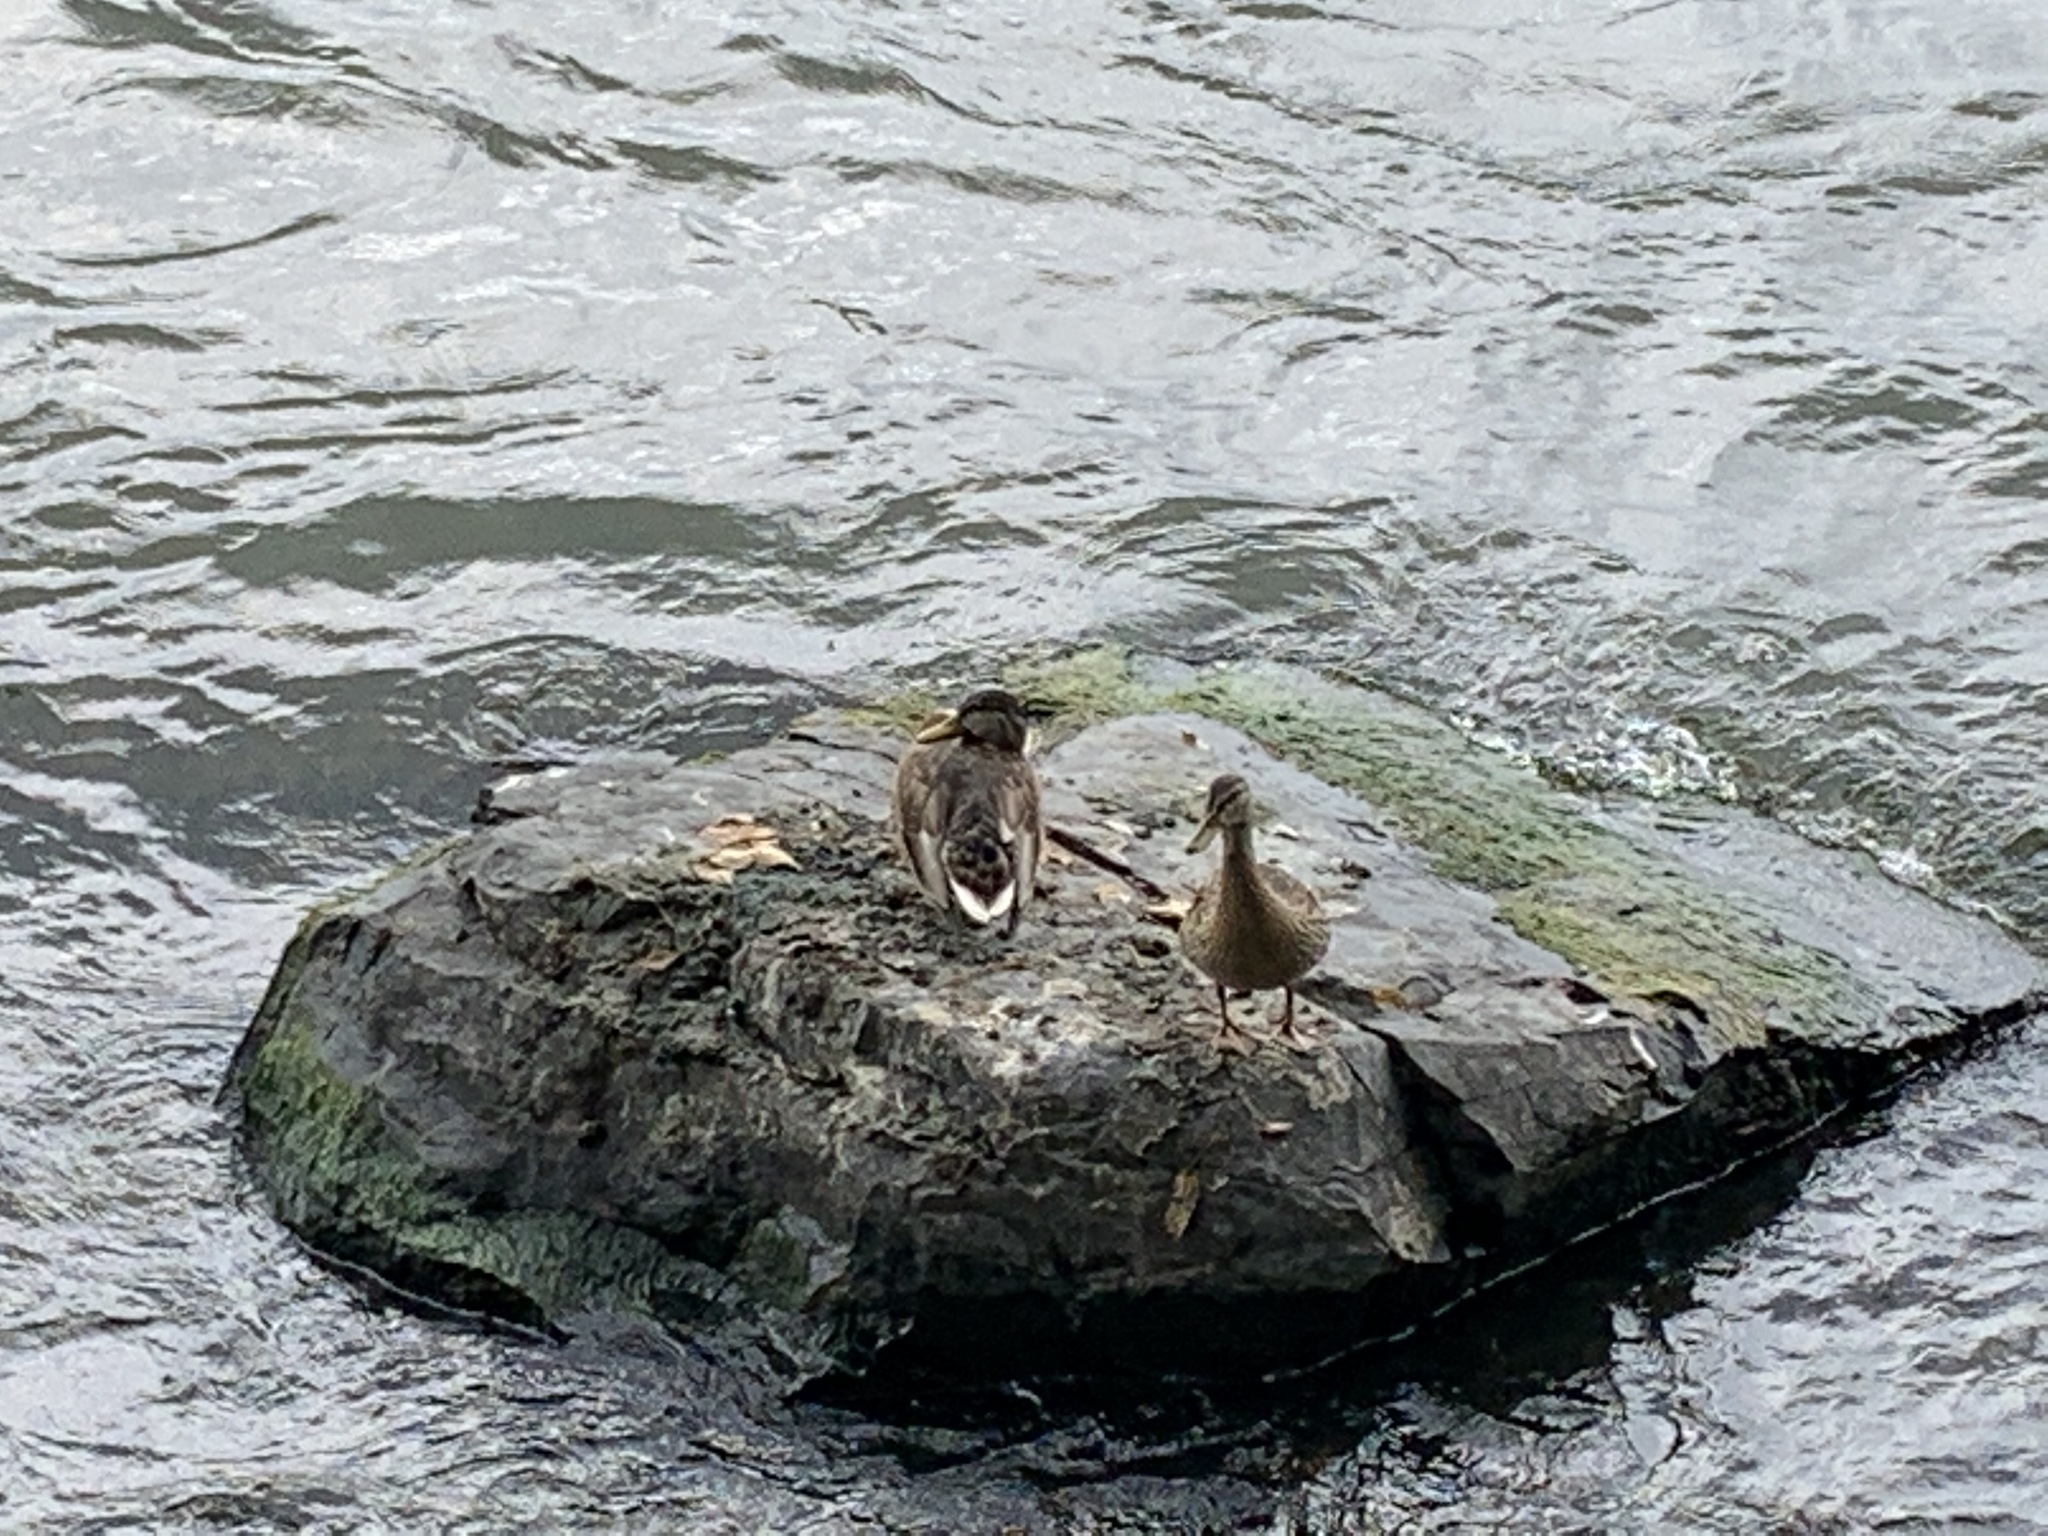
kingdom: Animalia
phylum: Chordata
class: Aves
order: Anseriformes
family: Anatidae
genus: Anas
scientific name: Anas platyrhynchos
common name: Mallard
